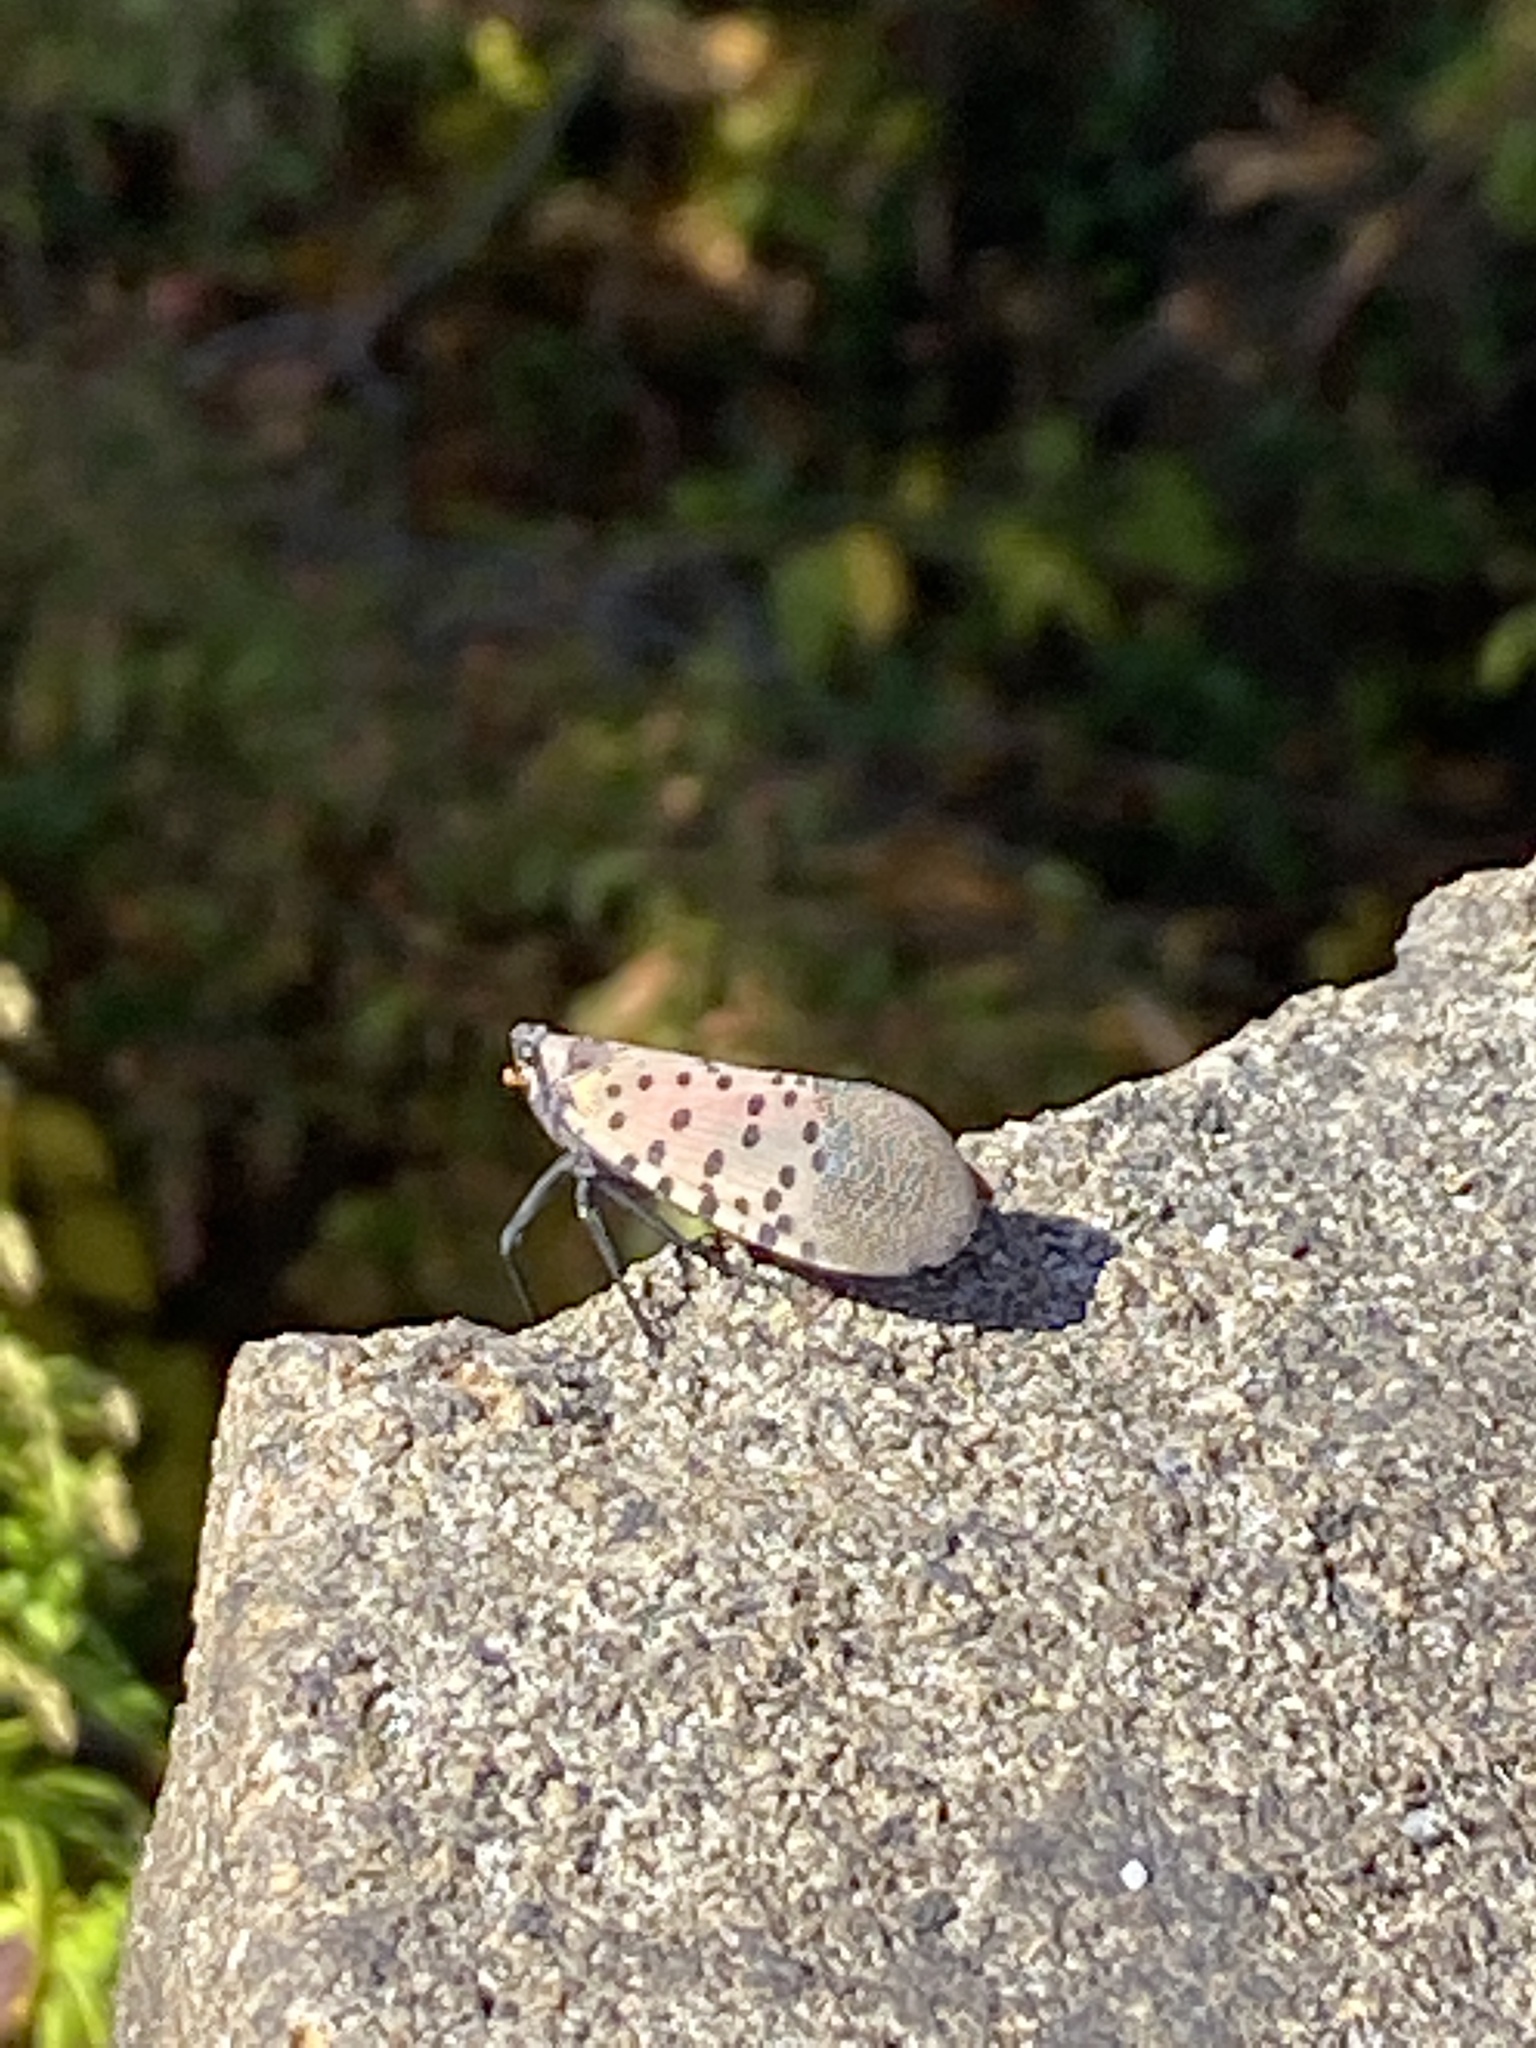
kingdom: Animalia
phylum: Arthropoda
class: Insecta
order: Hemiptera
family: Fulgoridae
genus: Lycorma
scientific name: Lycorma delicatula
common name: Spotted lanternfly
